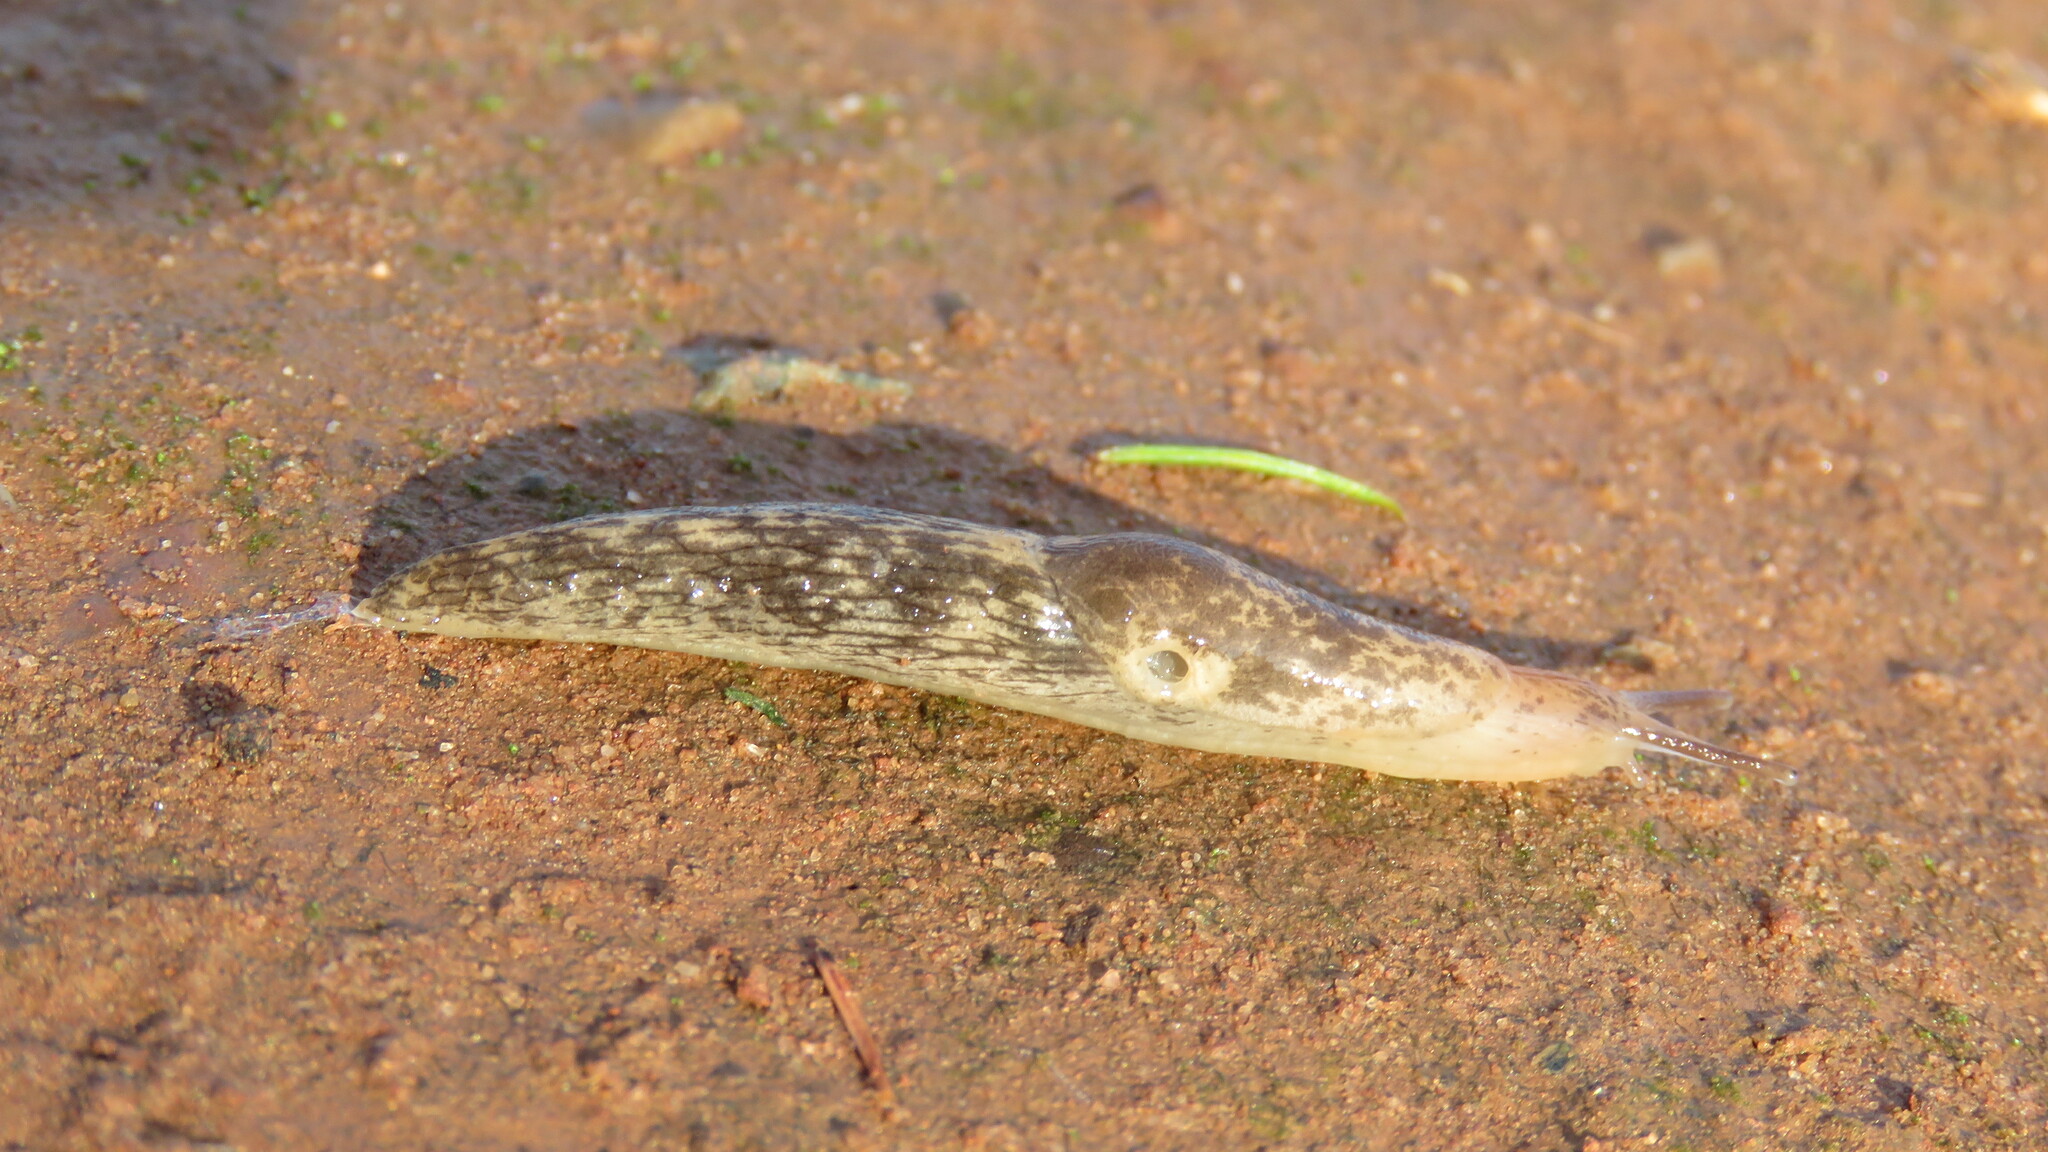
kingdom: Animalia
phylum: Mollusca
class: Gastropoda
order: Stylommatophora
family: Agriolimacidae
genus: Deroceras
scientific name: Deroceras reticulatum
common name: Gray field slug
